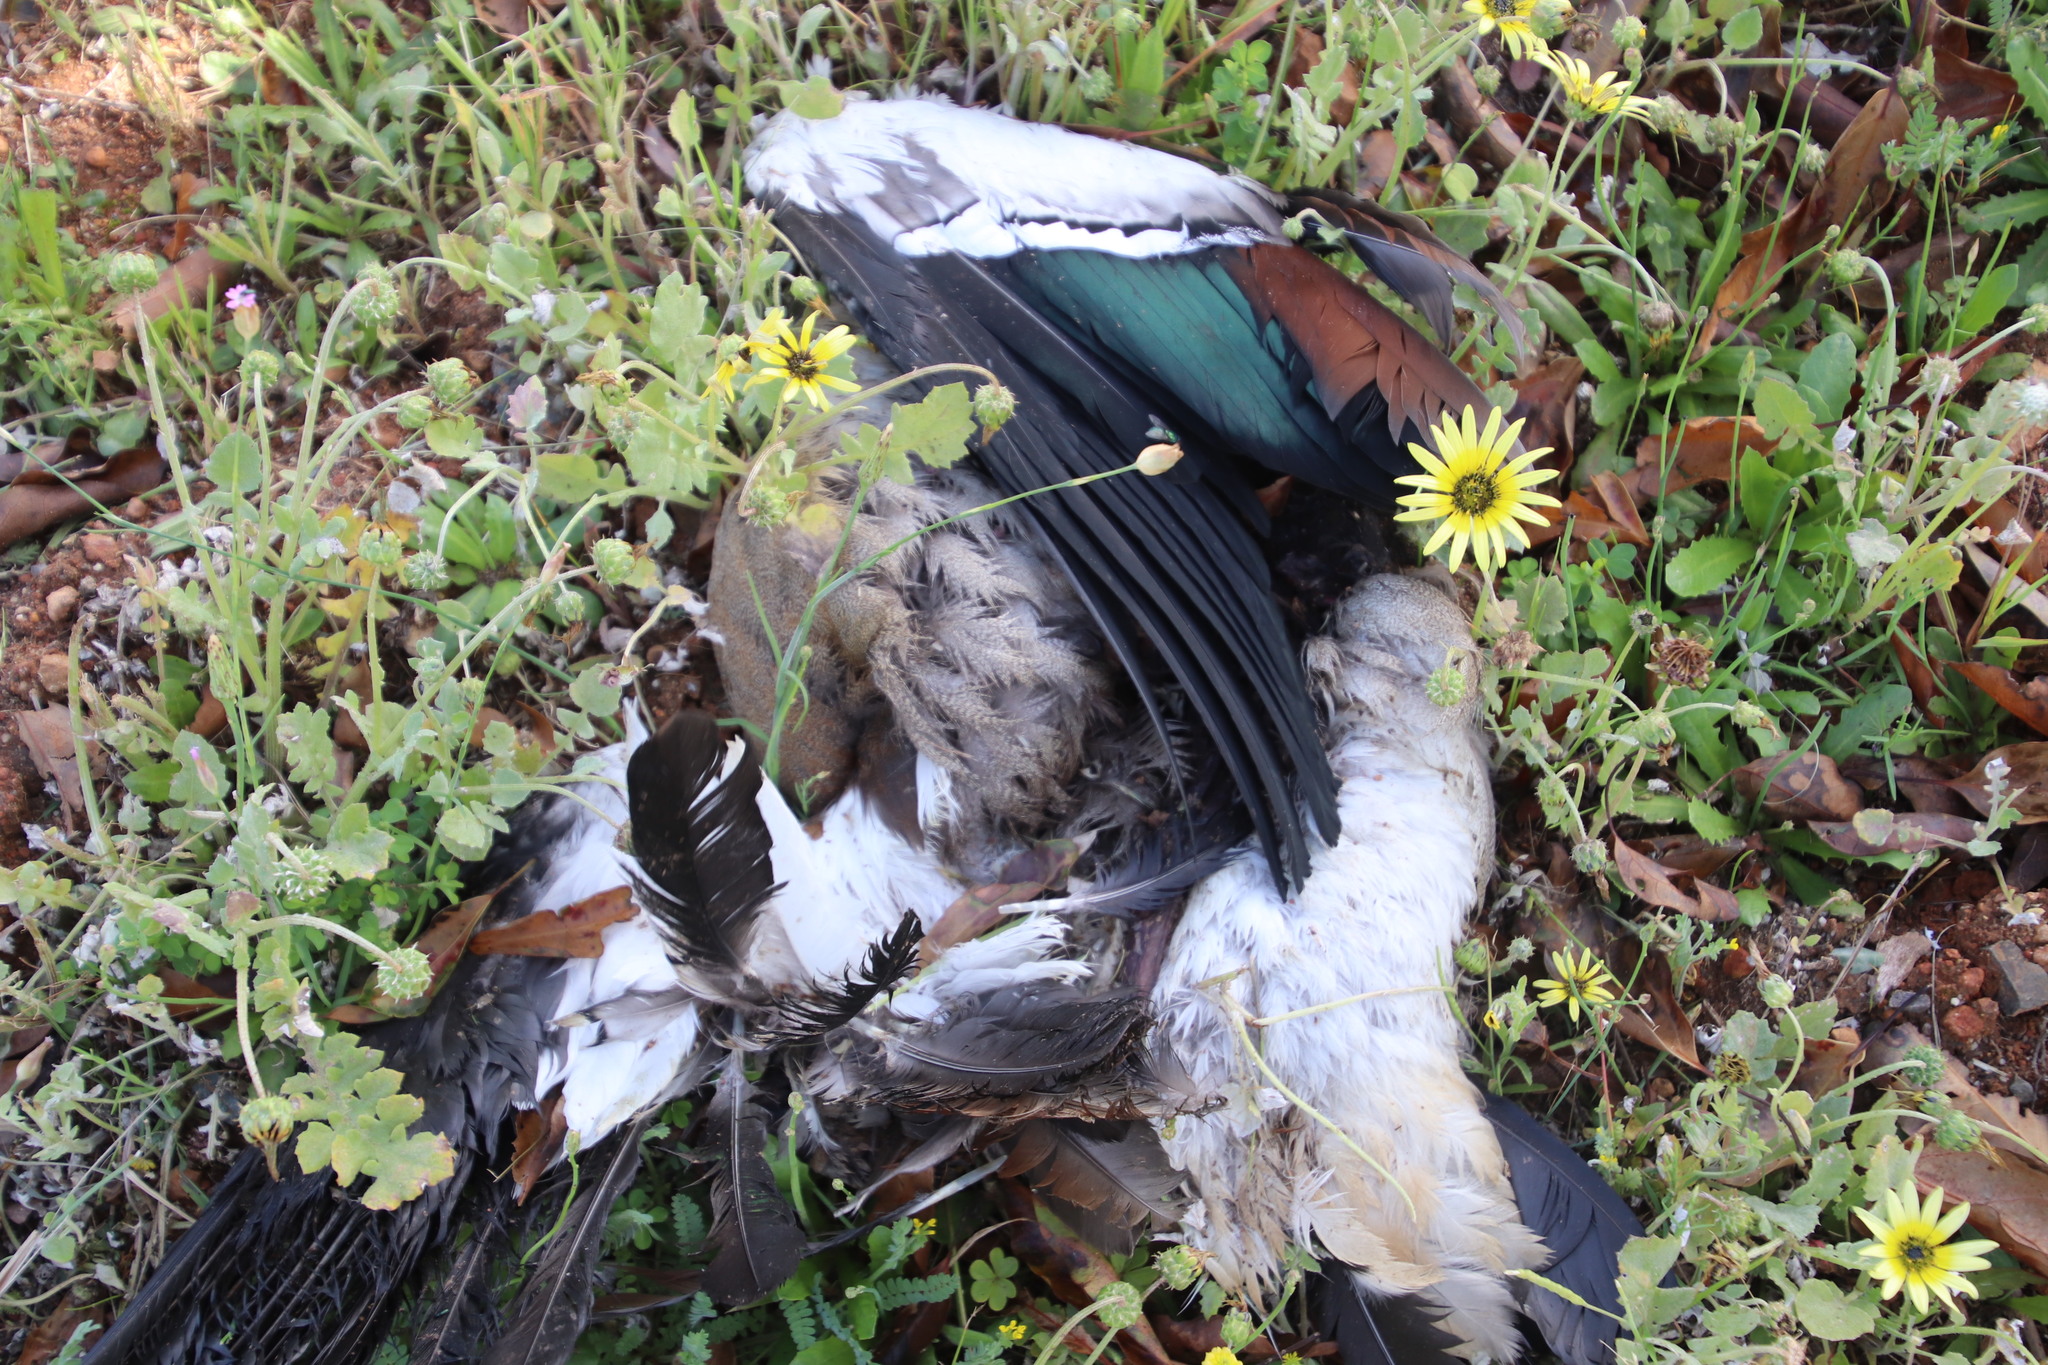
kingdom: Animalia
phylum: Chordata
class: Aves
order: Anseriformes
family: Anatidae
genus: Alopochen
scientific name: Alopochen aegyptiaca
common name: Egyptian goose
